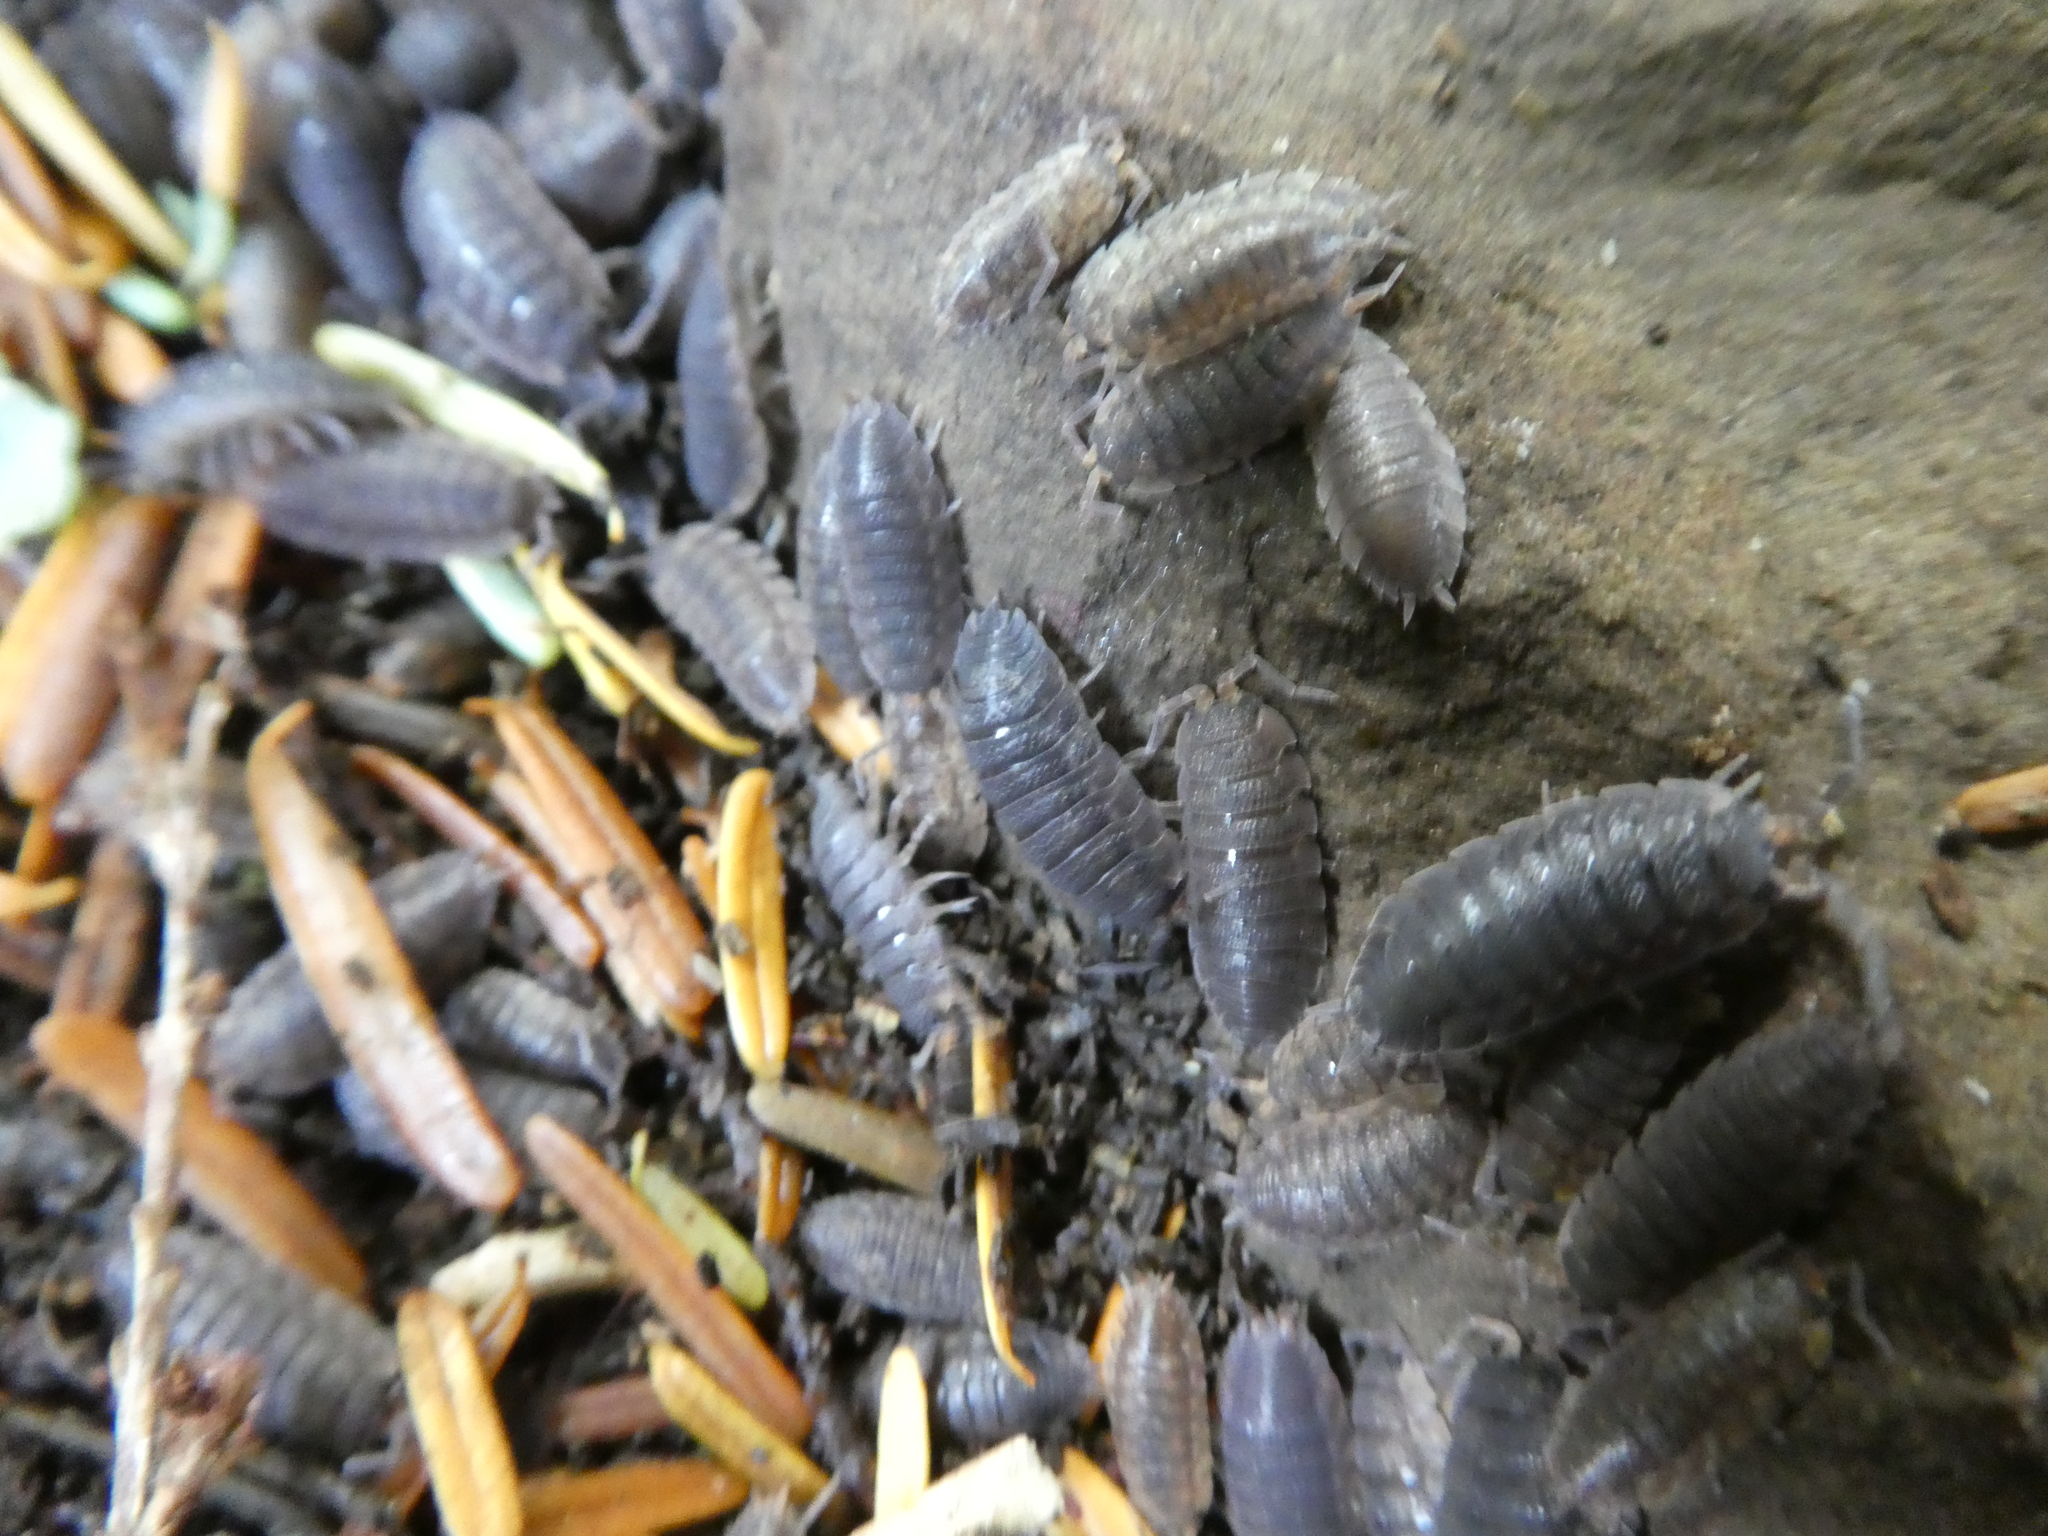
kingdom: Animalia
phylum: Arthropoda
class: Malacostraca
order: Isopoda
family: Porcellionidae
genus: Porcellio
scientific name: Porcellio scaber
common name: Common rough woodlouse
